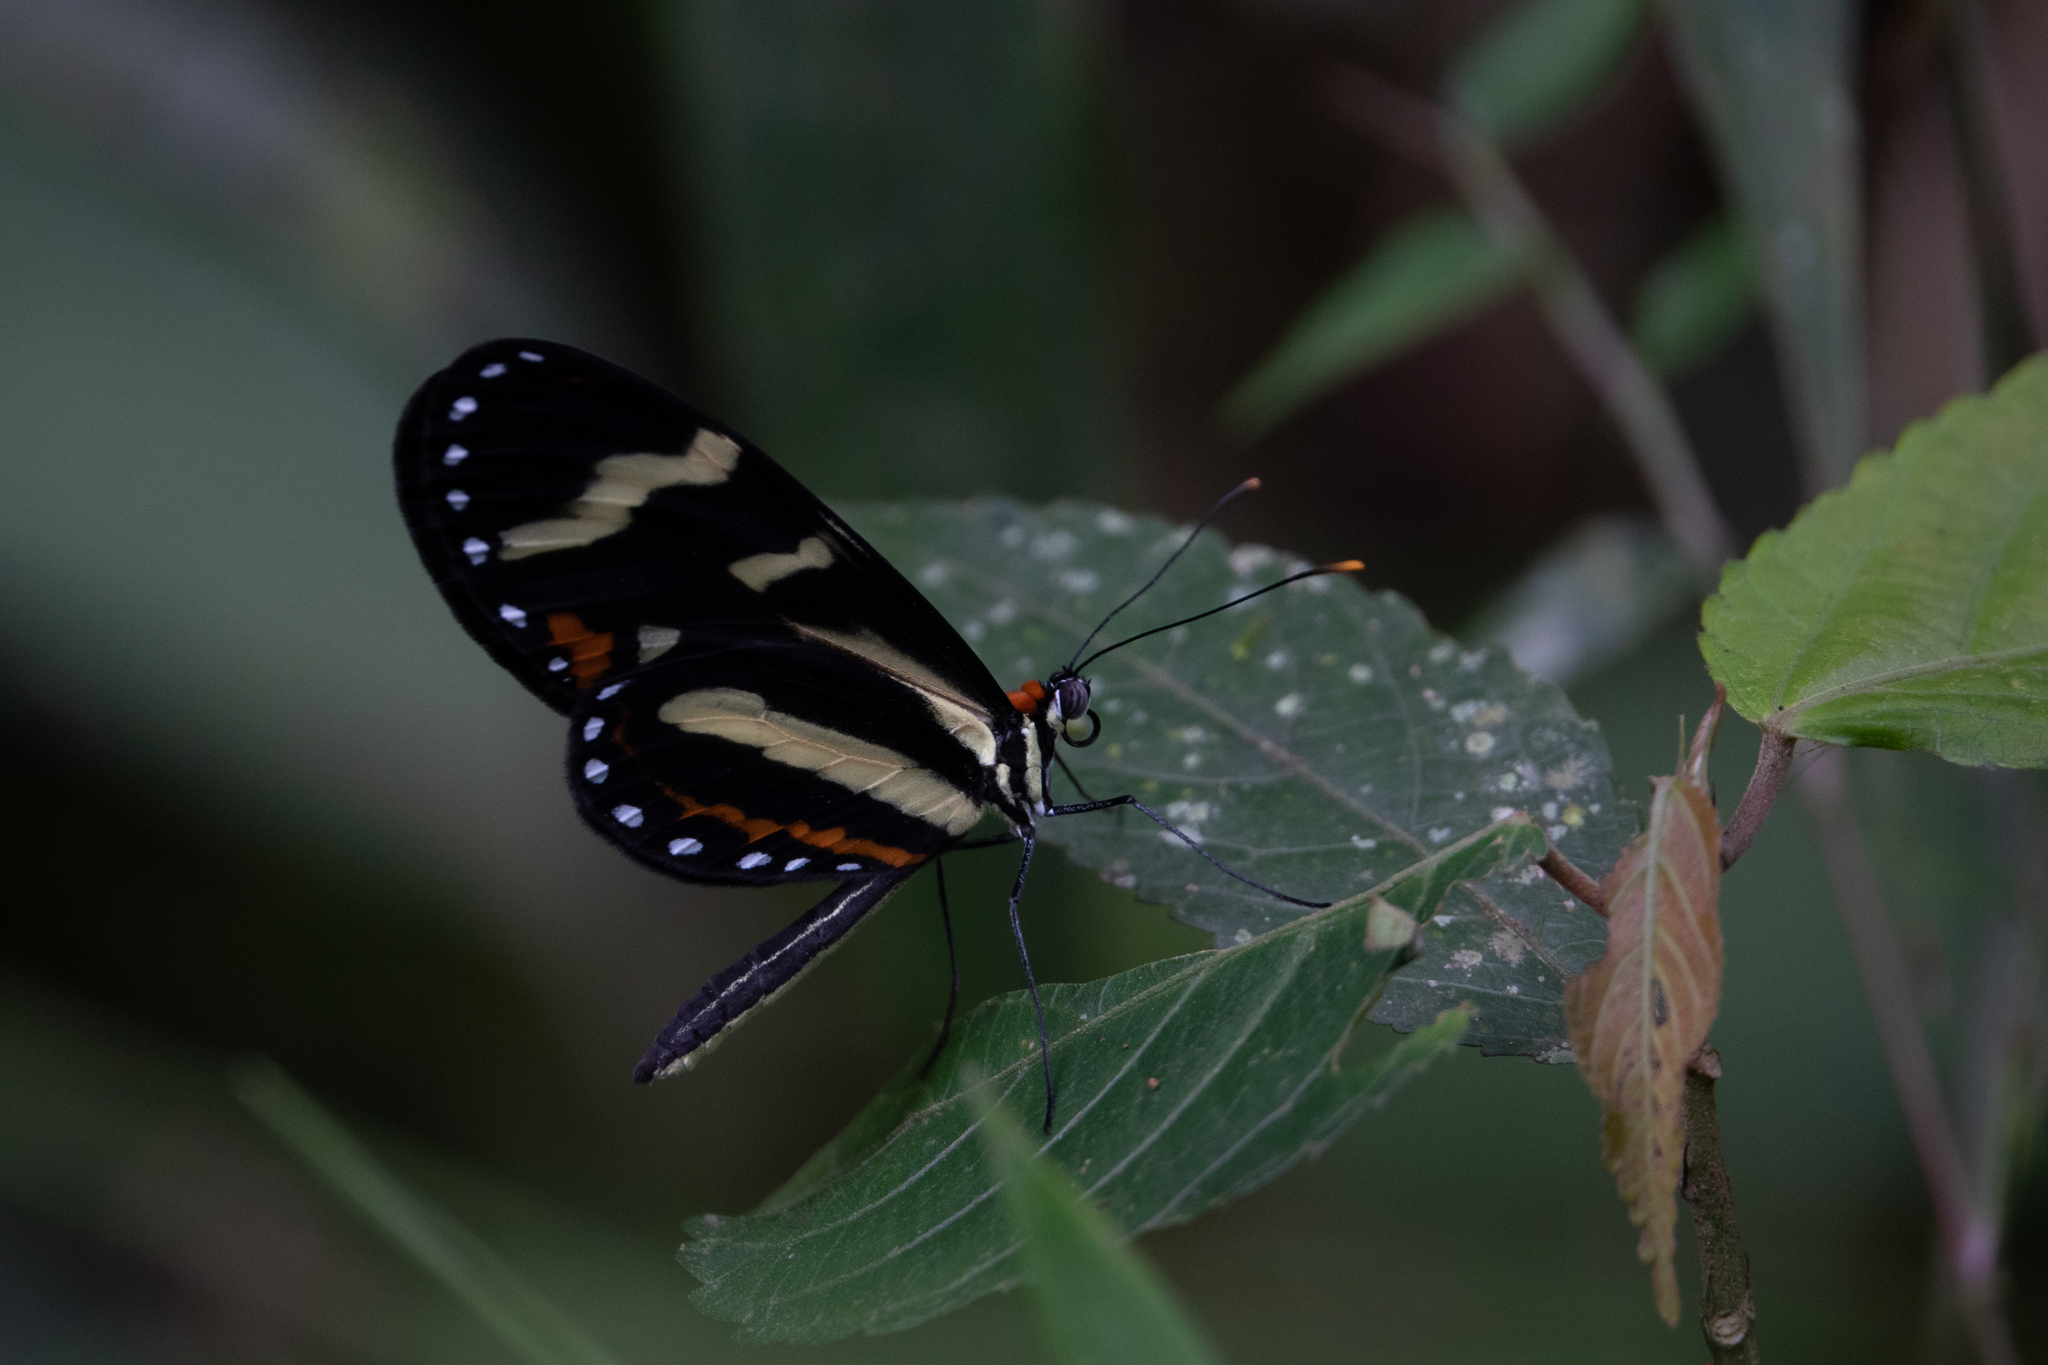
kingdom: Animalia
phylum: Arthropoda
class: Insecta
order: Lepidoptera
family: Nymphalidae
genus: Mechanitis
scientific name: Mechanitis menapis
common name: Menapis tigerwing
